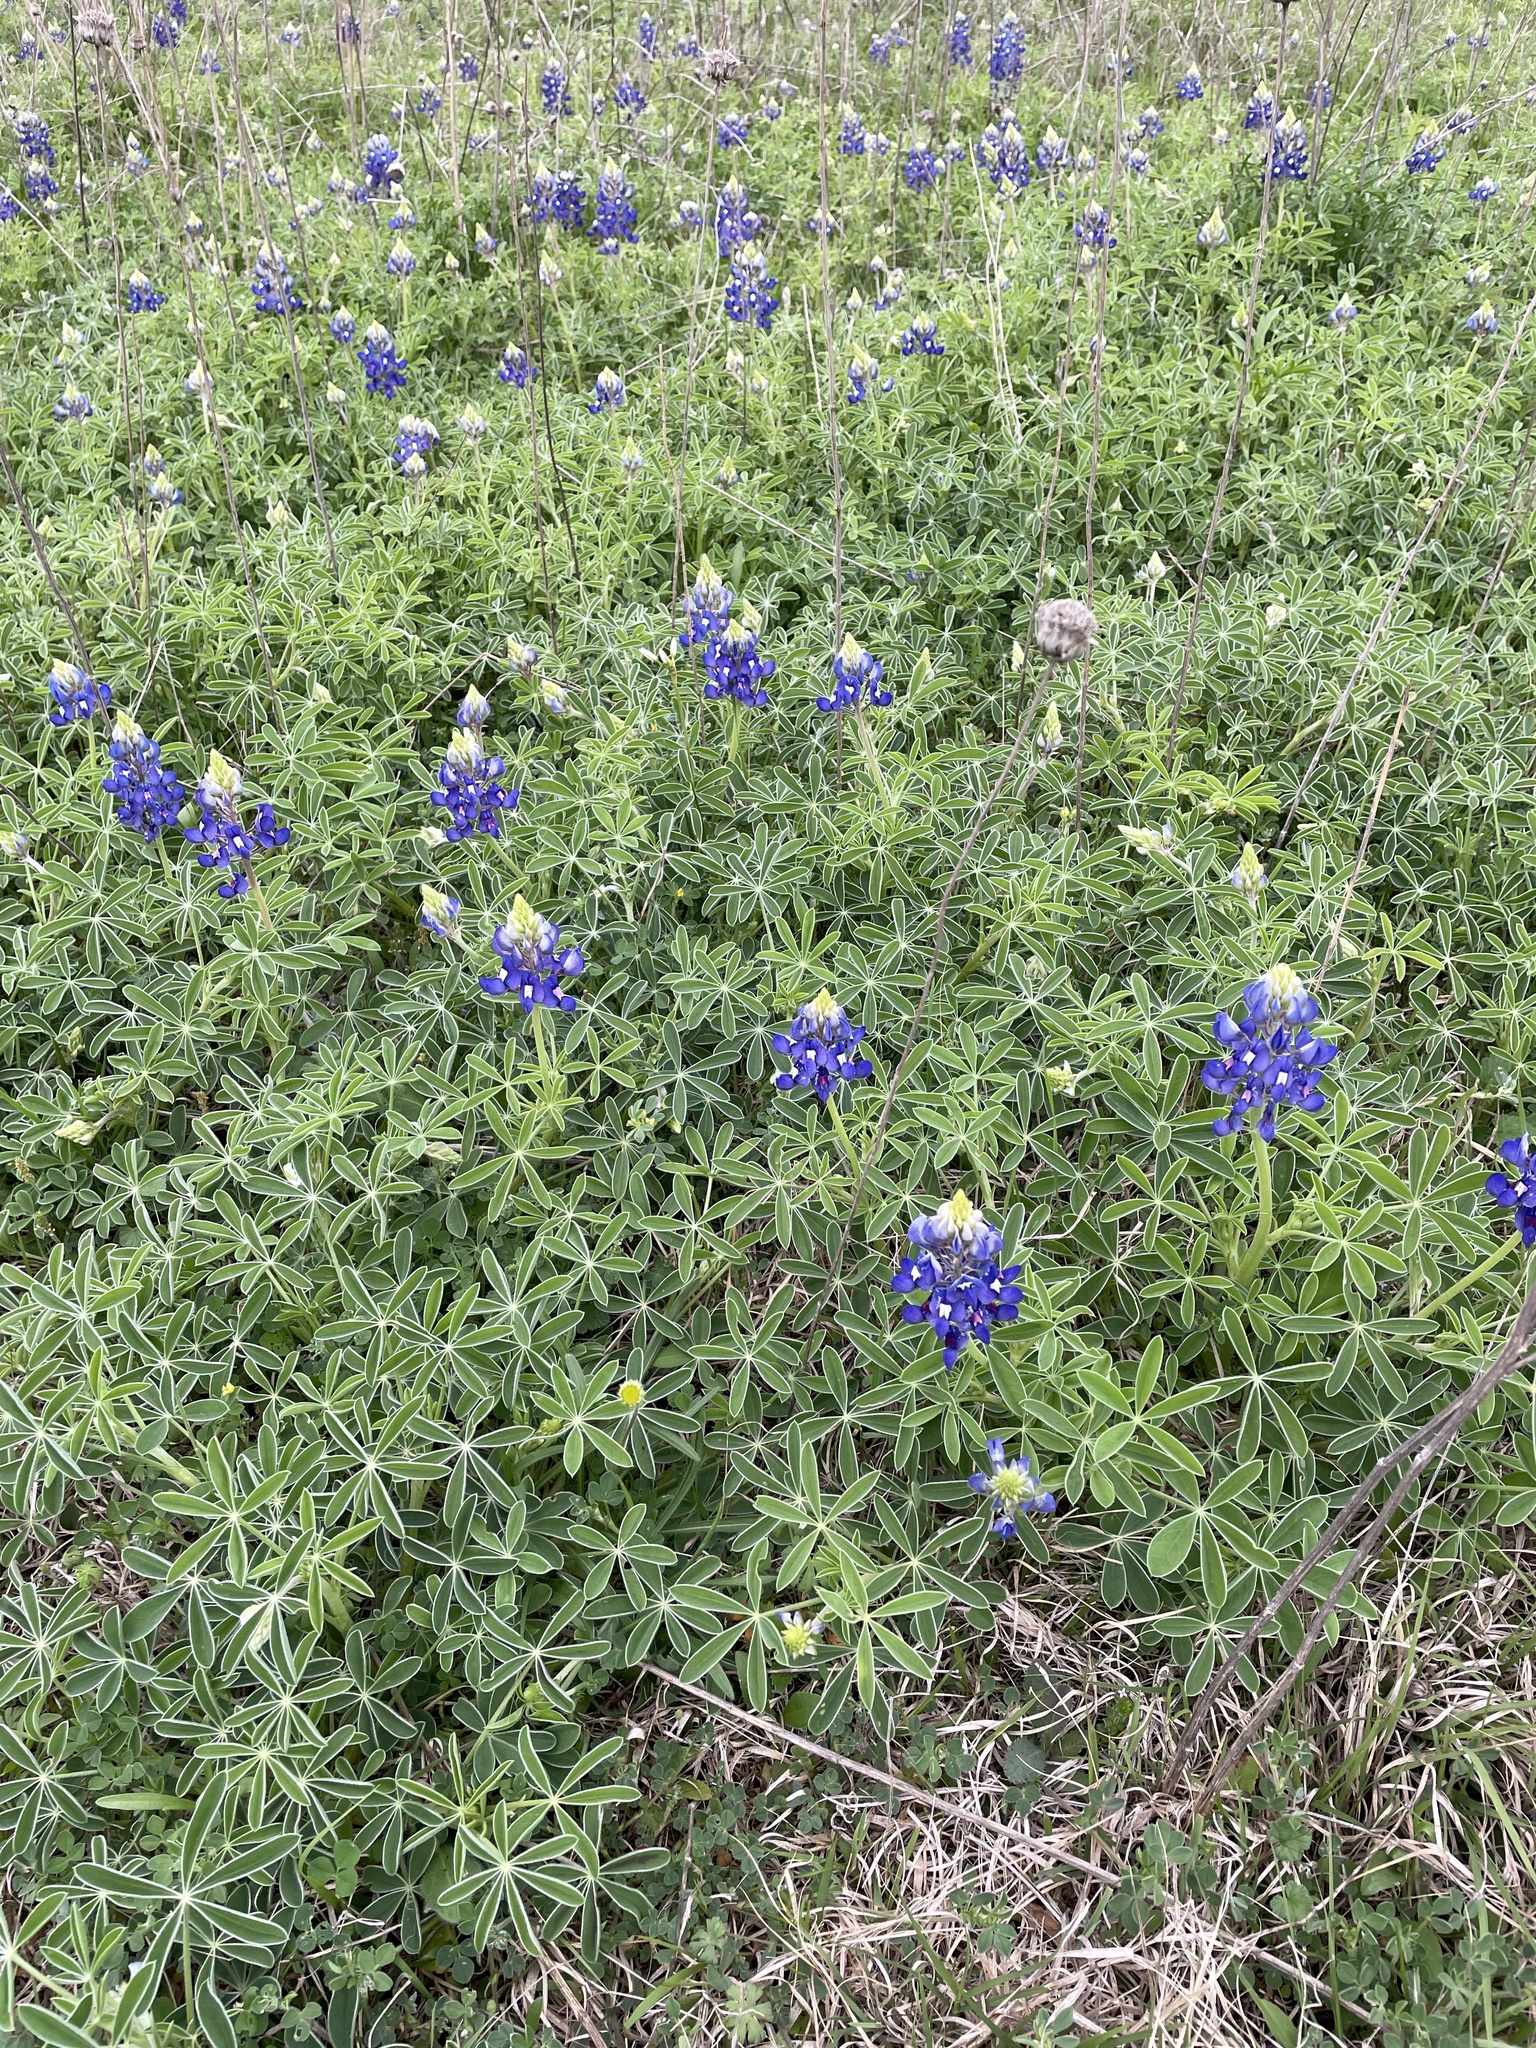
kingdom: Plantae
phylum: Tracheophyta
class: Magnoliopsida
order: Fabales
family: Fabaceae
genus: Lupinus
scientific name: Lupinus texensis
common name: Texas bluebonnet
